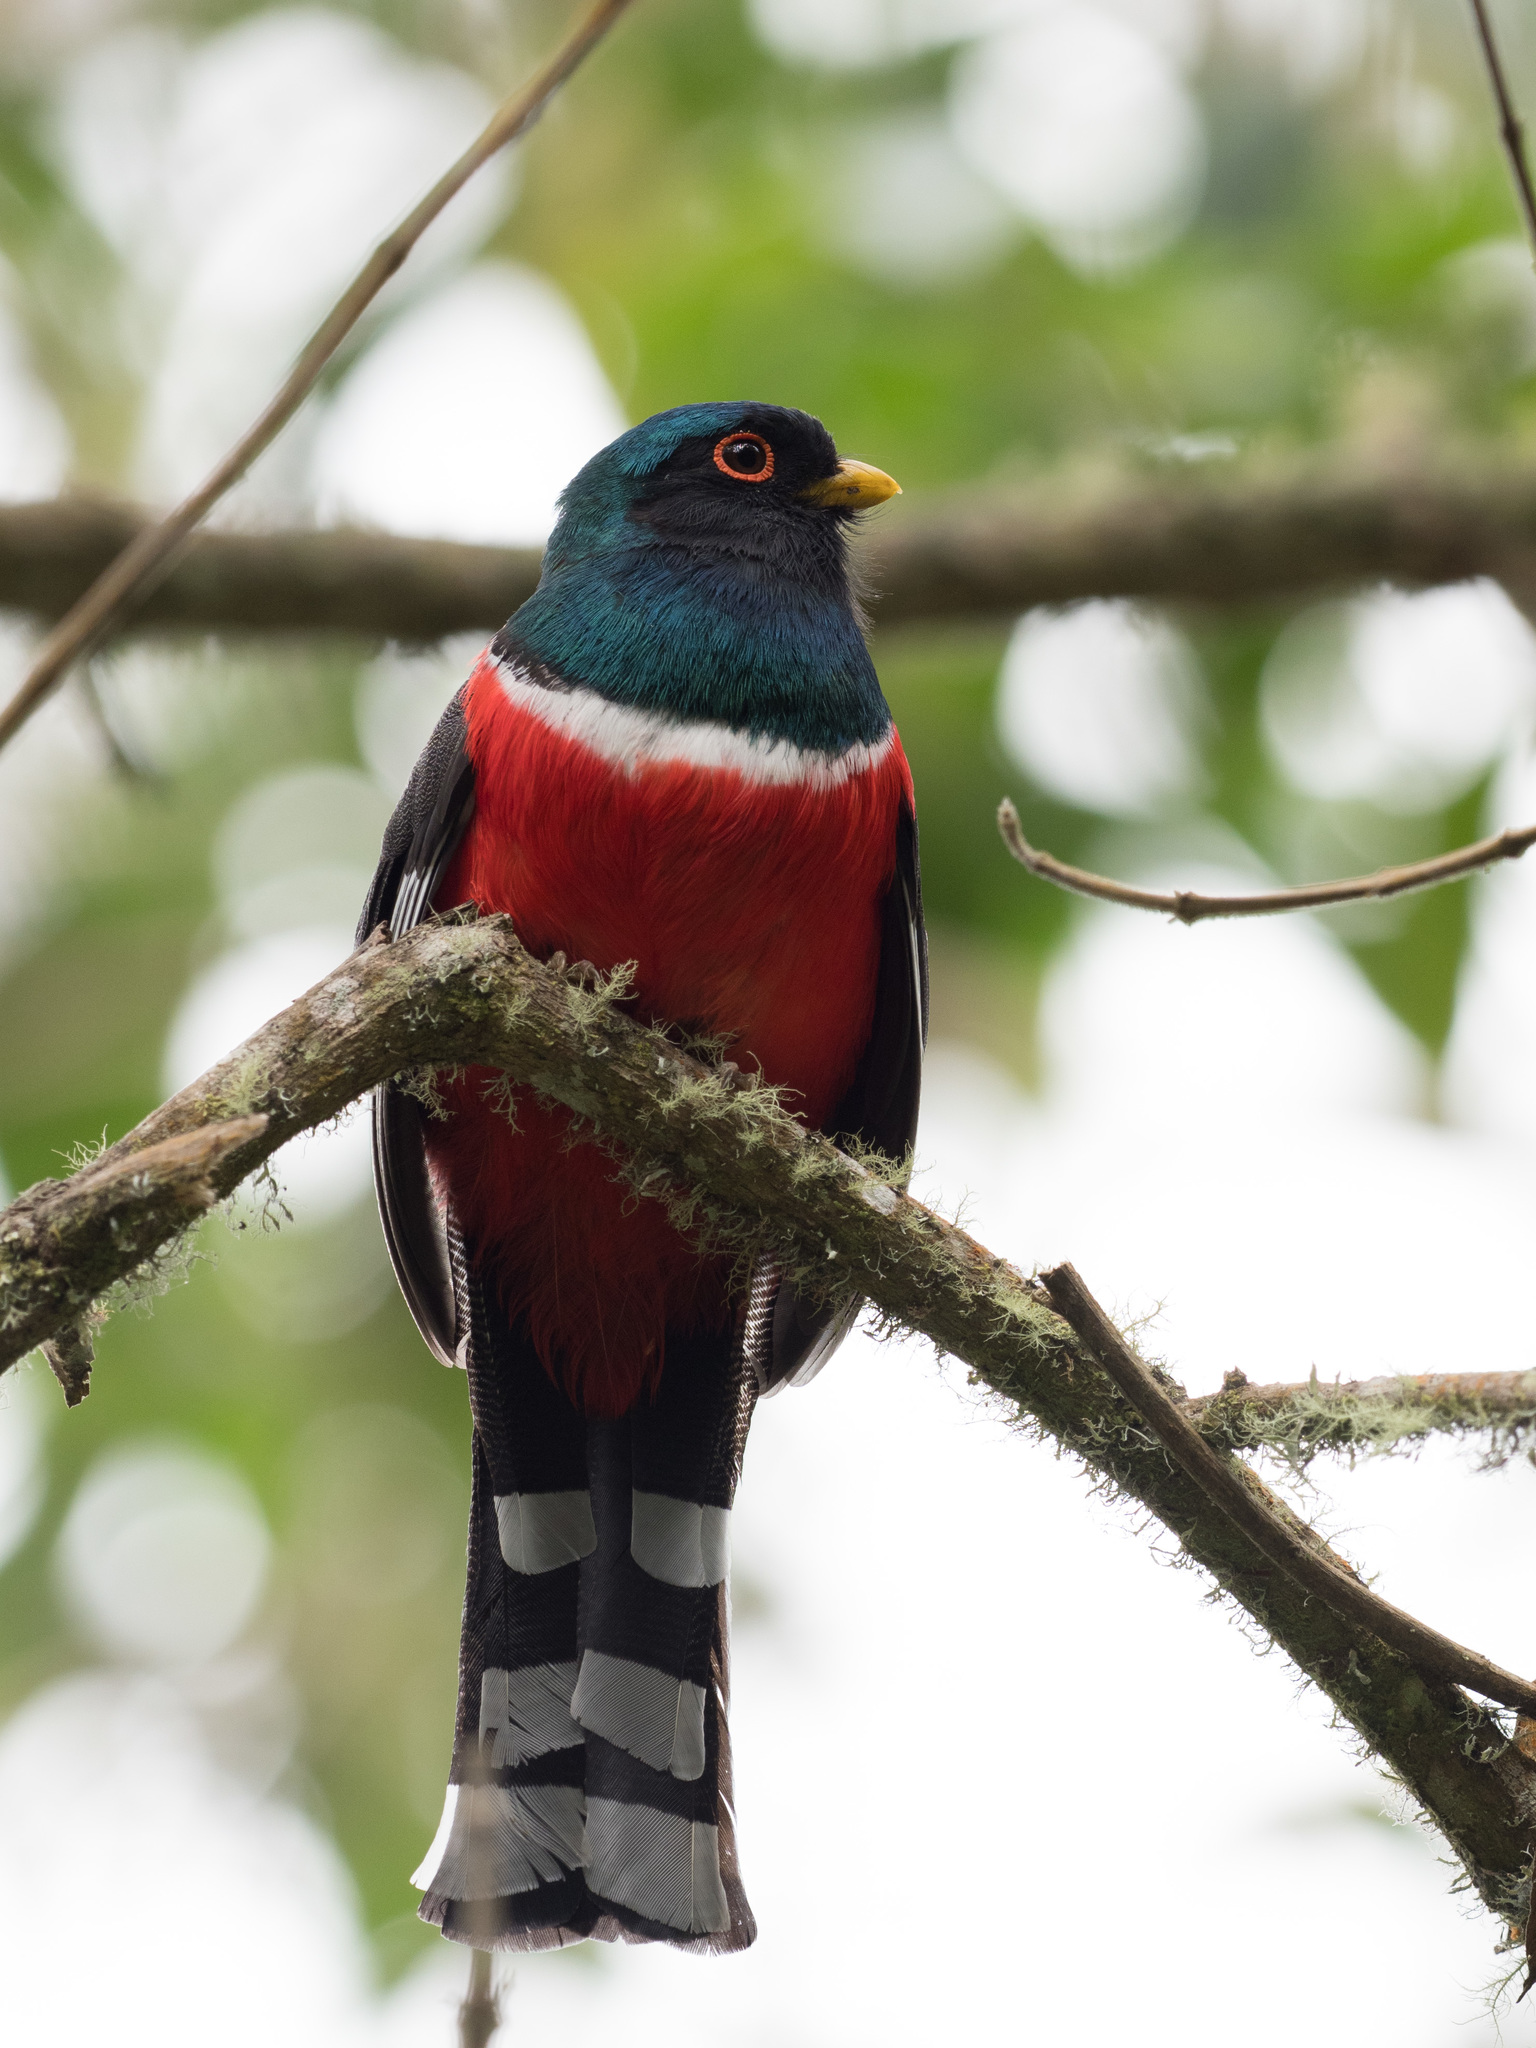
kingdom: Animalia
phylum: Chordata
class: Aves
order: Trogoniformes
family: Trogonidae
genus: Trogon
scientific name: Trogon personatus
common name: Masked trogon
